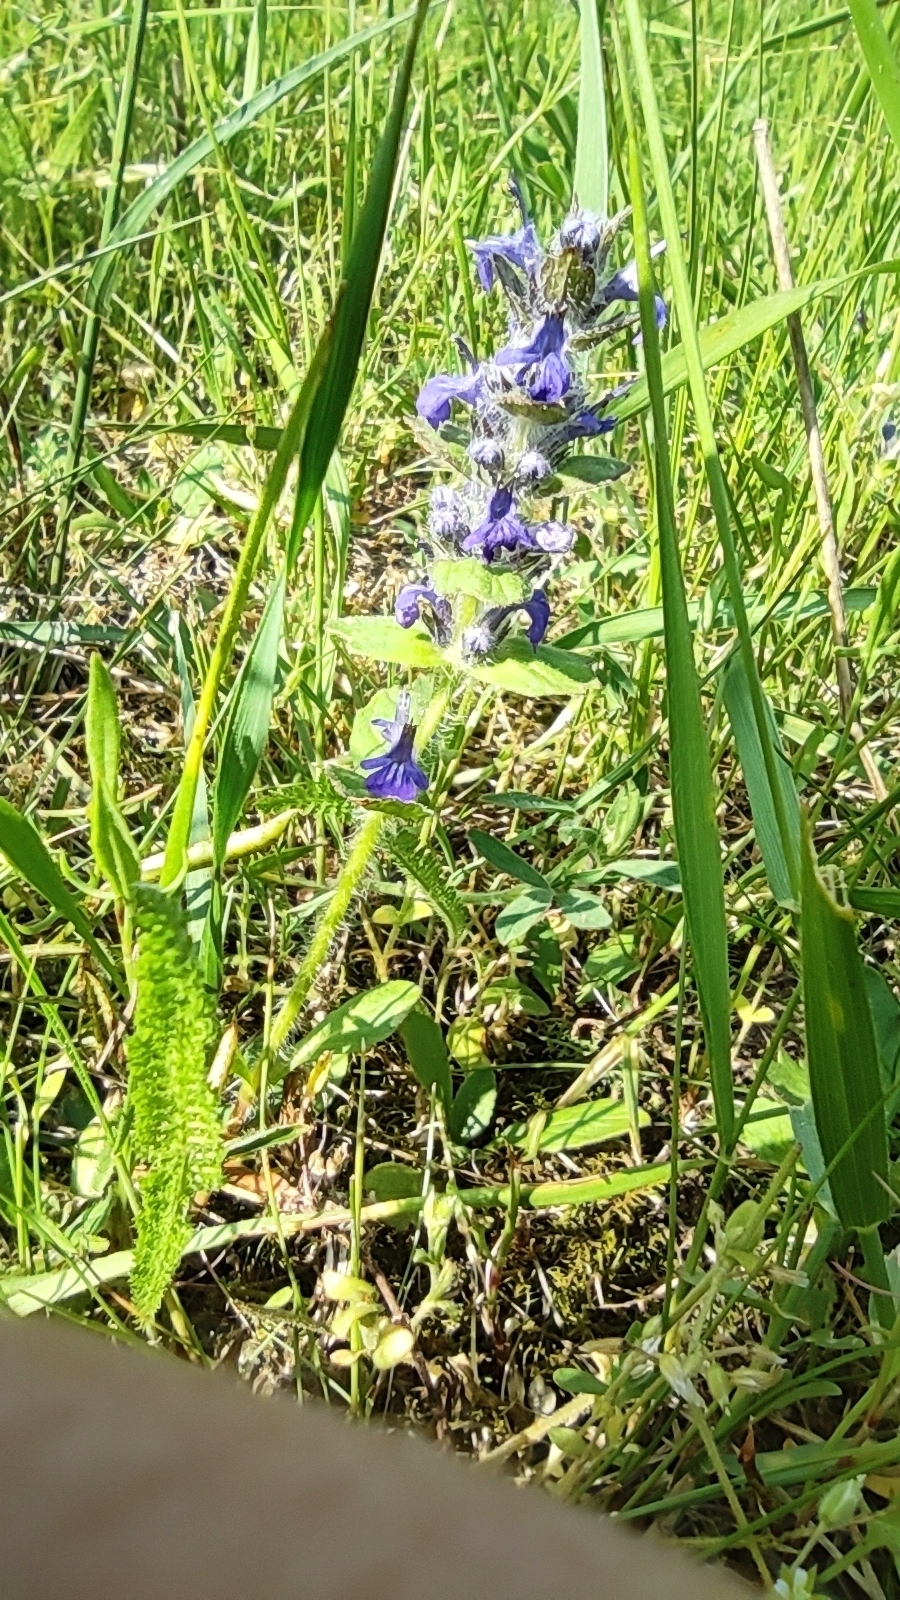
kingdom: Plantae
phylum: Tracheophyta
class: Magnoliopsida
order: Lamiales
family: Lamiaceae
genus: Ajuga
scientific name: Ajuga genevensis
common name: Blue bugle
